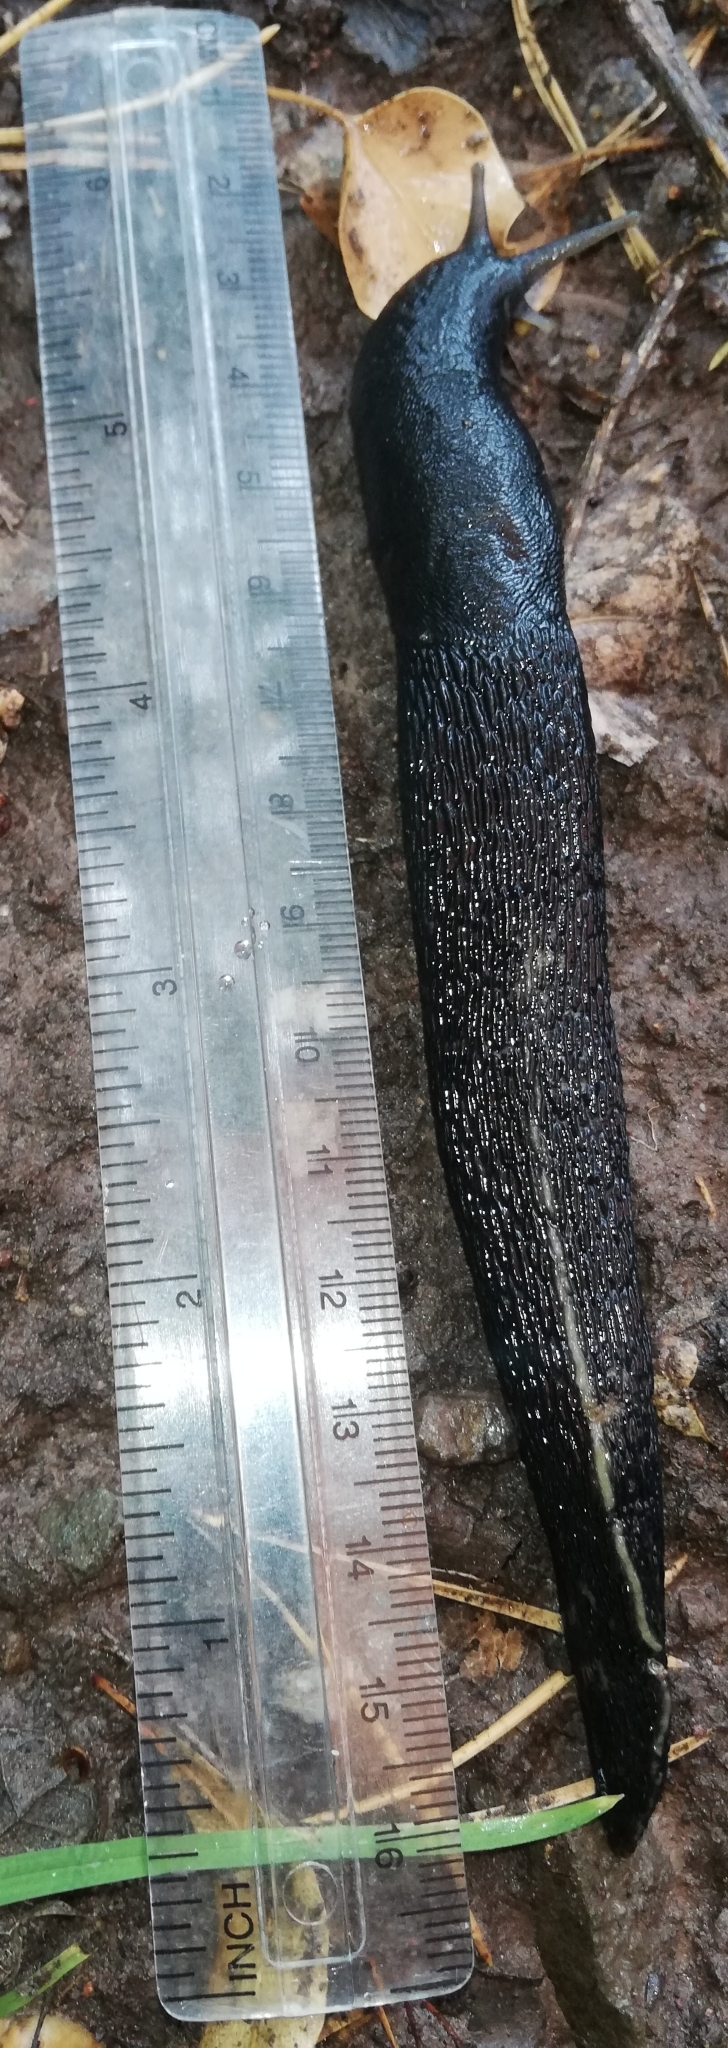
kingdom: Animalia
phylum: Mollusca
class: Gastropoda
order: Stylommatophora
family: Limacidae
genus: Limax
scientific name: Limax cinereoniger
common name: Ash-black slug
